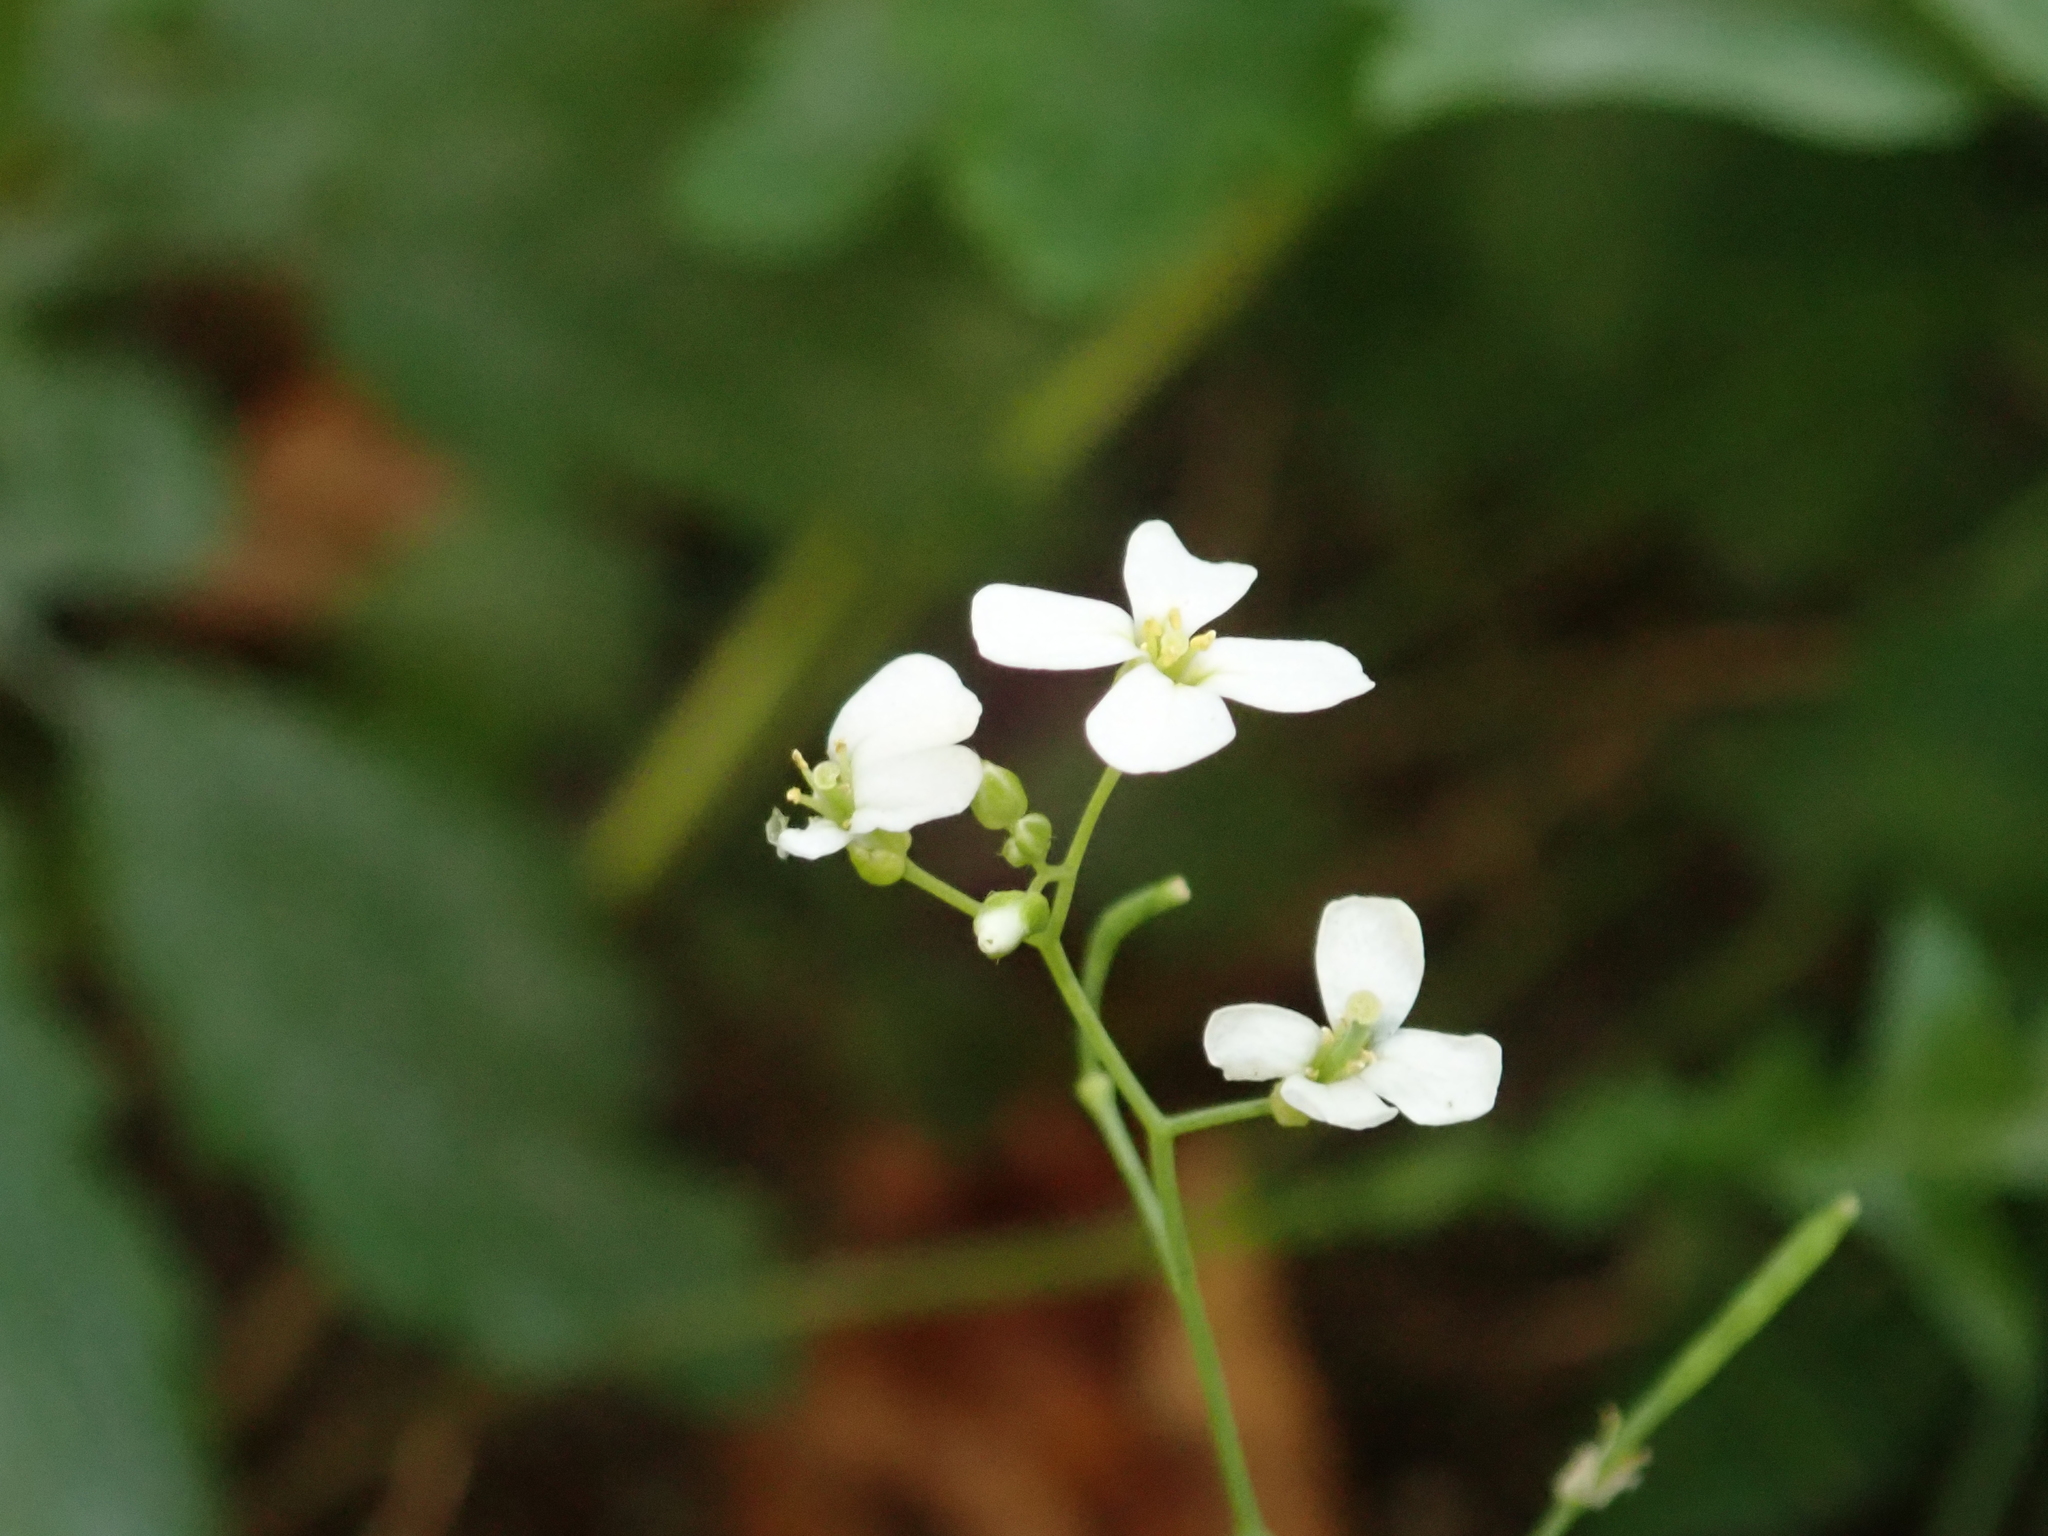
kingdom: Plantae
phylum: Tracheophyta
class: Magnoliopsida
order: Brassicales
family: Brassicaceae
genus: Arabidopsis
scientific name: Arabidopsis thaliana
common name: Thale cress
